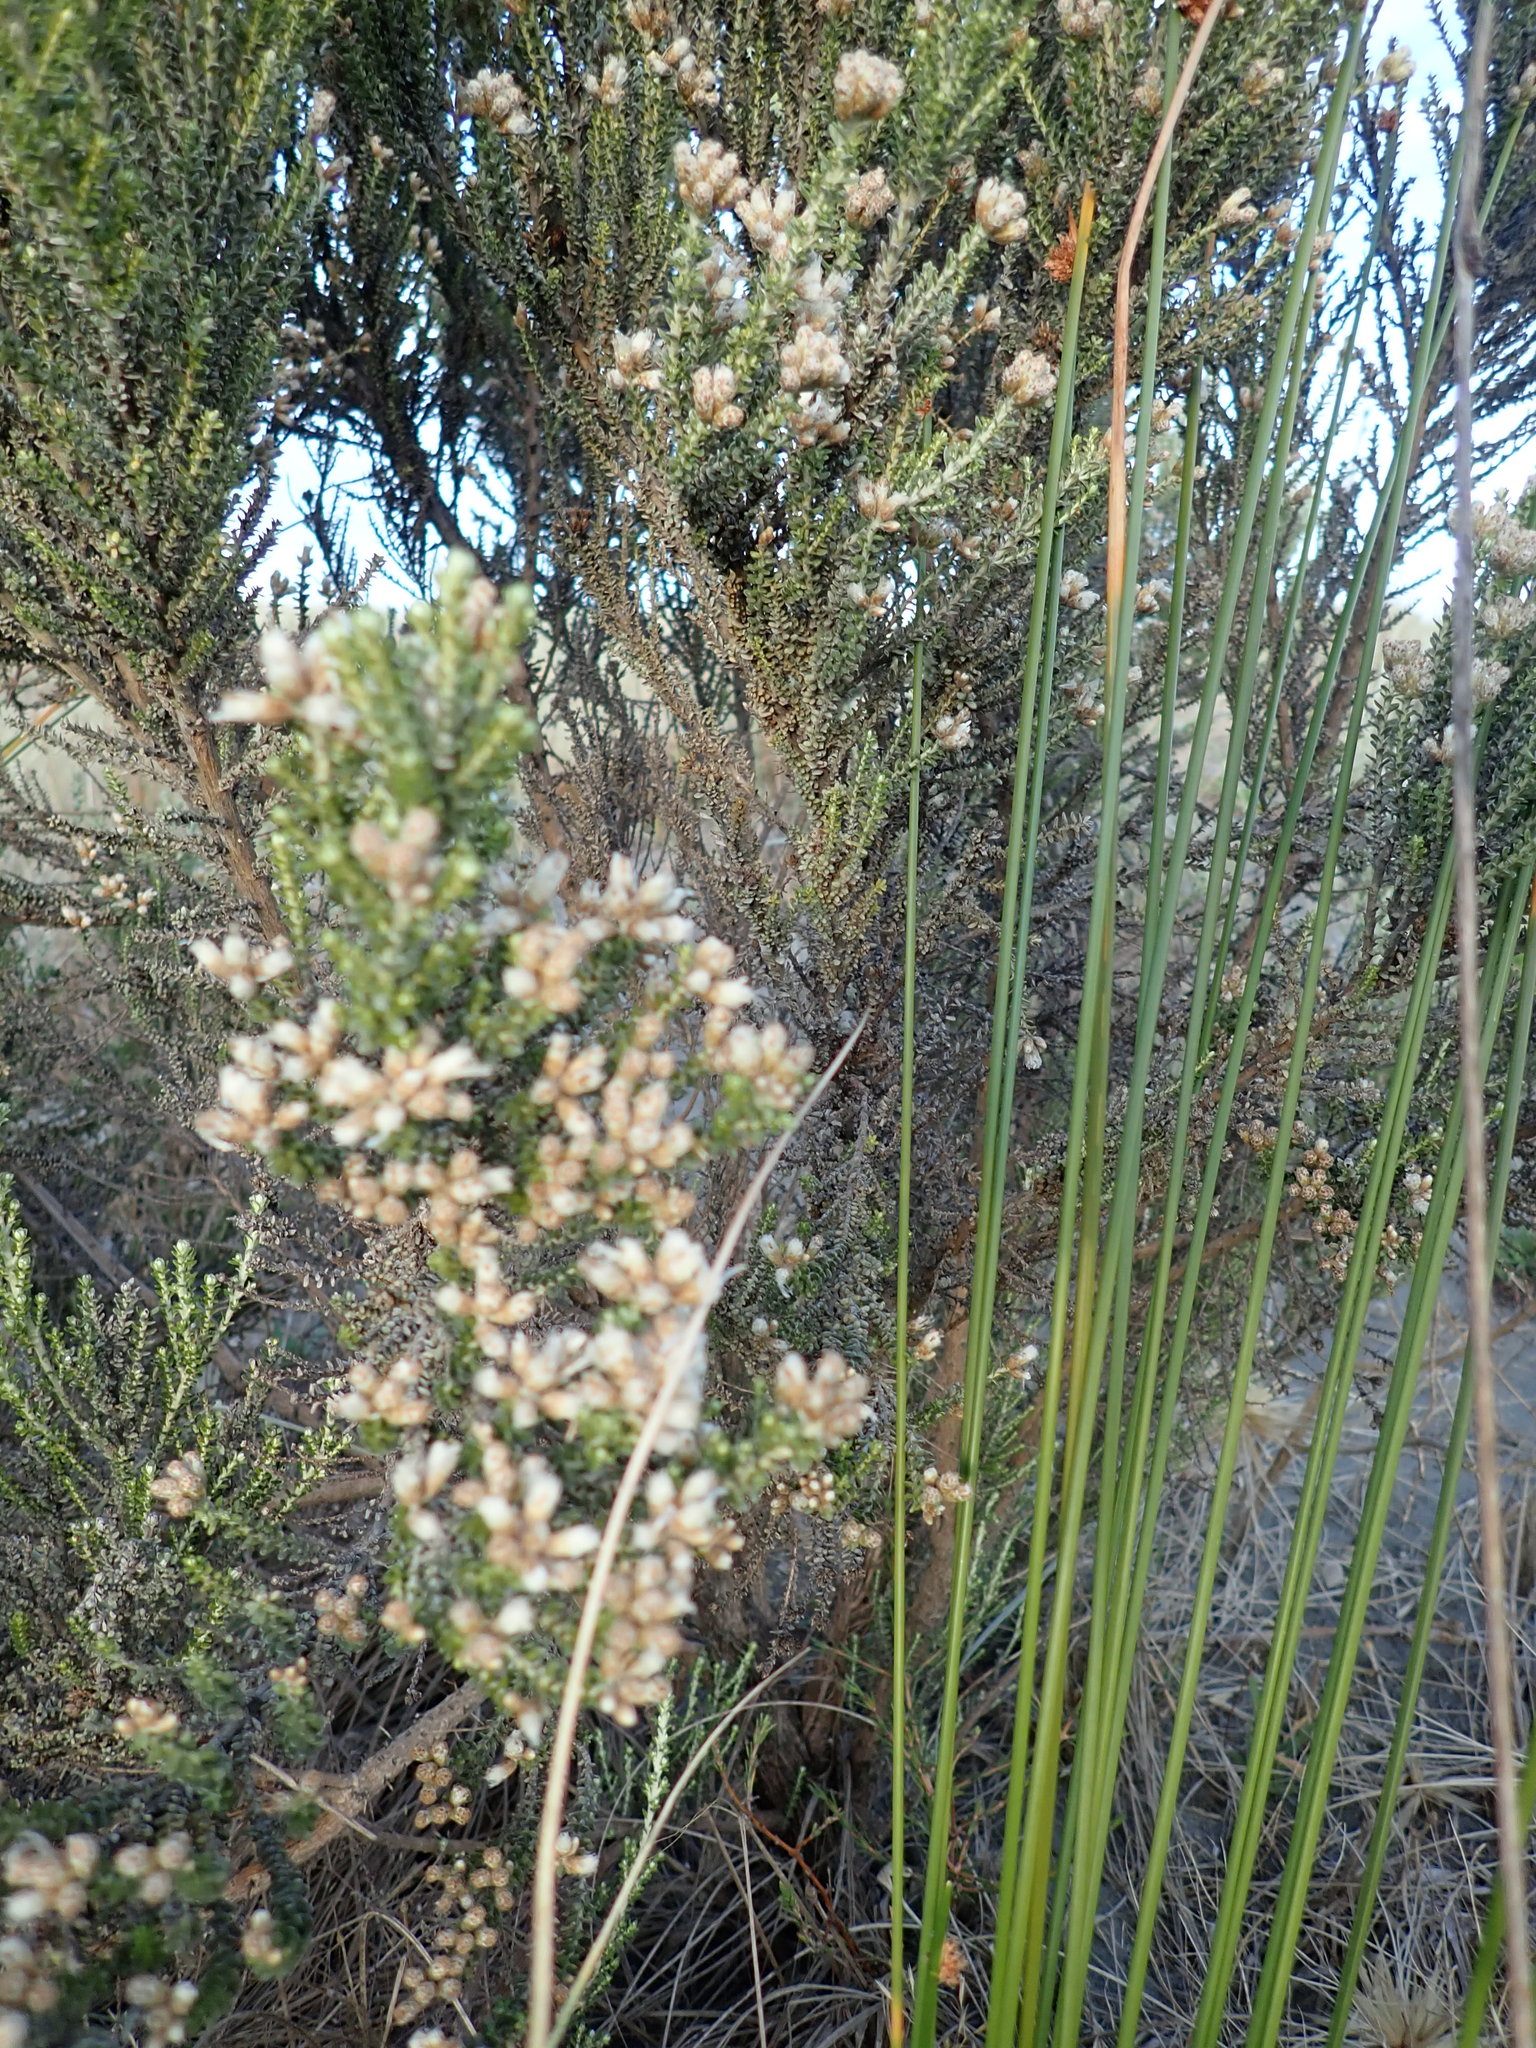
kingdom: Plantae
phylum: Tracheophyta
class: Magnoliopsida
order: Asterales
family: Asteraceae
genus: Ozothamnus
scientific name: Ozothamnus leptophyllus
